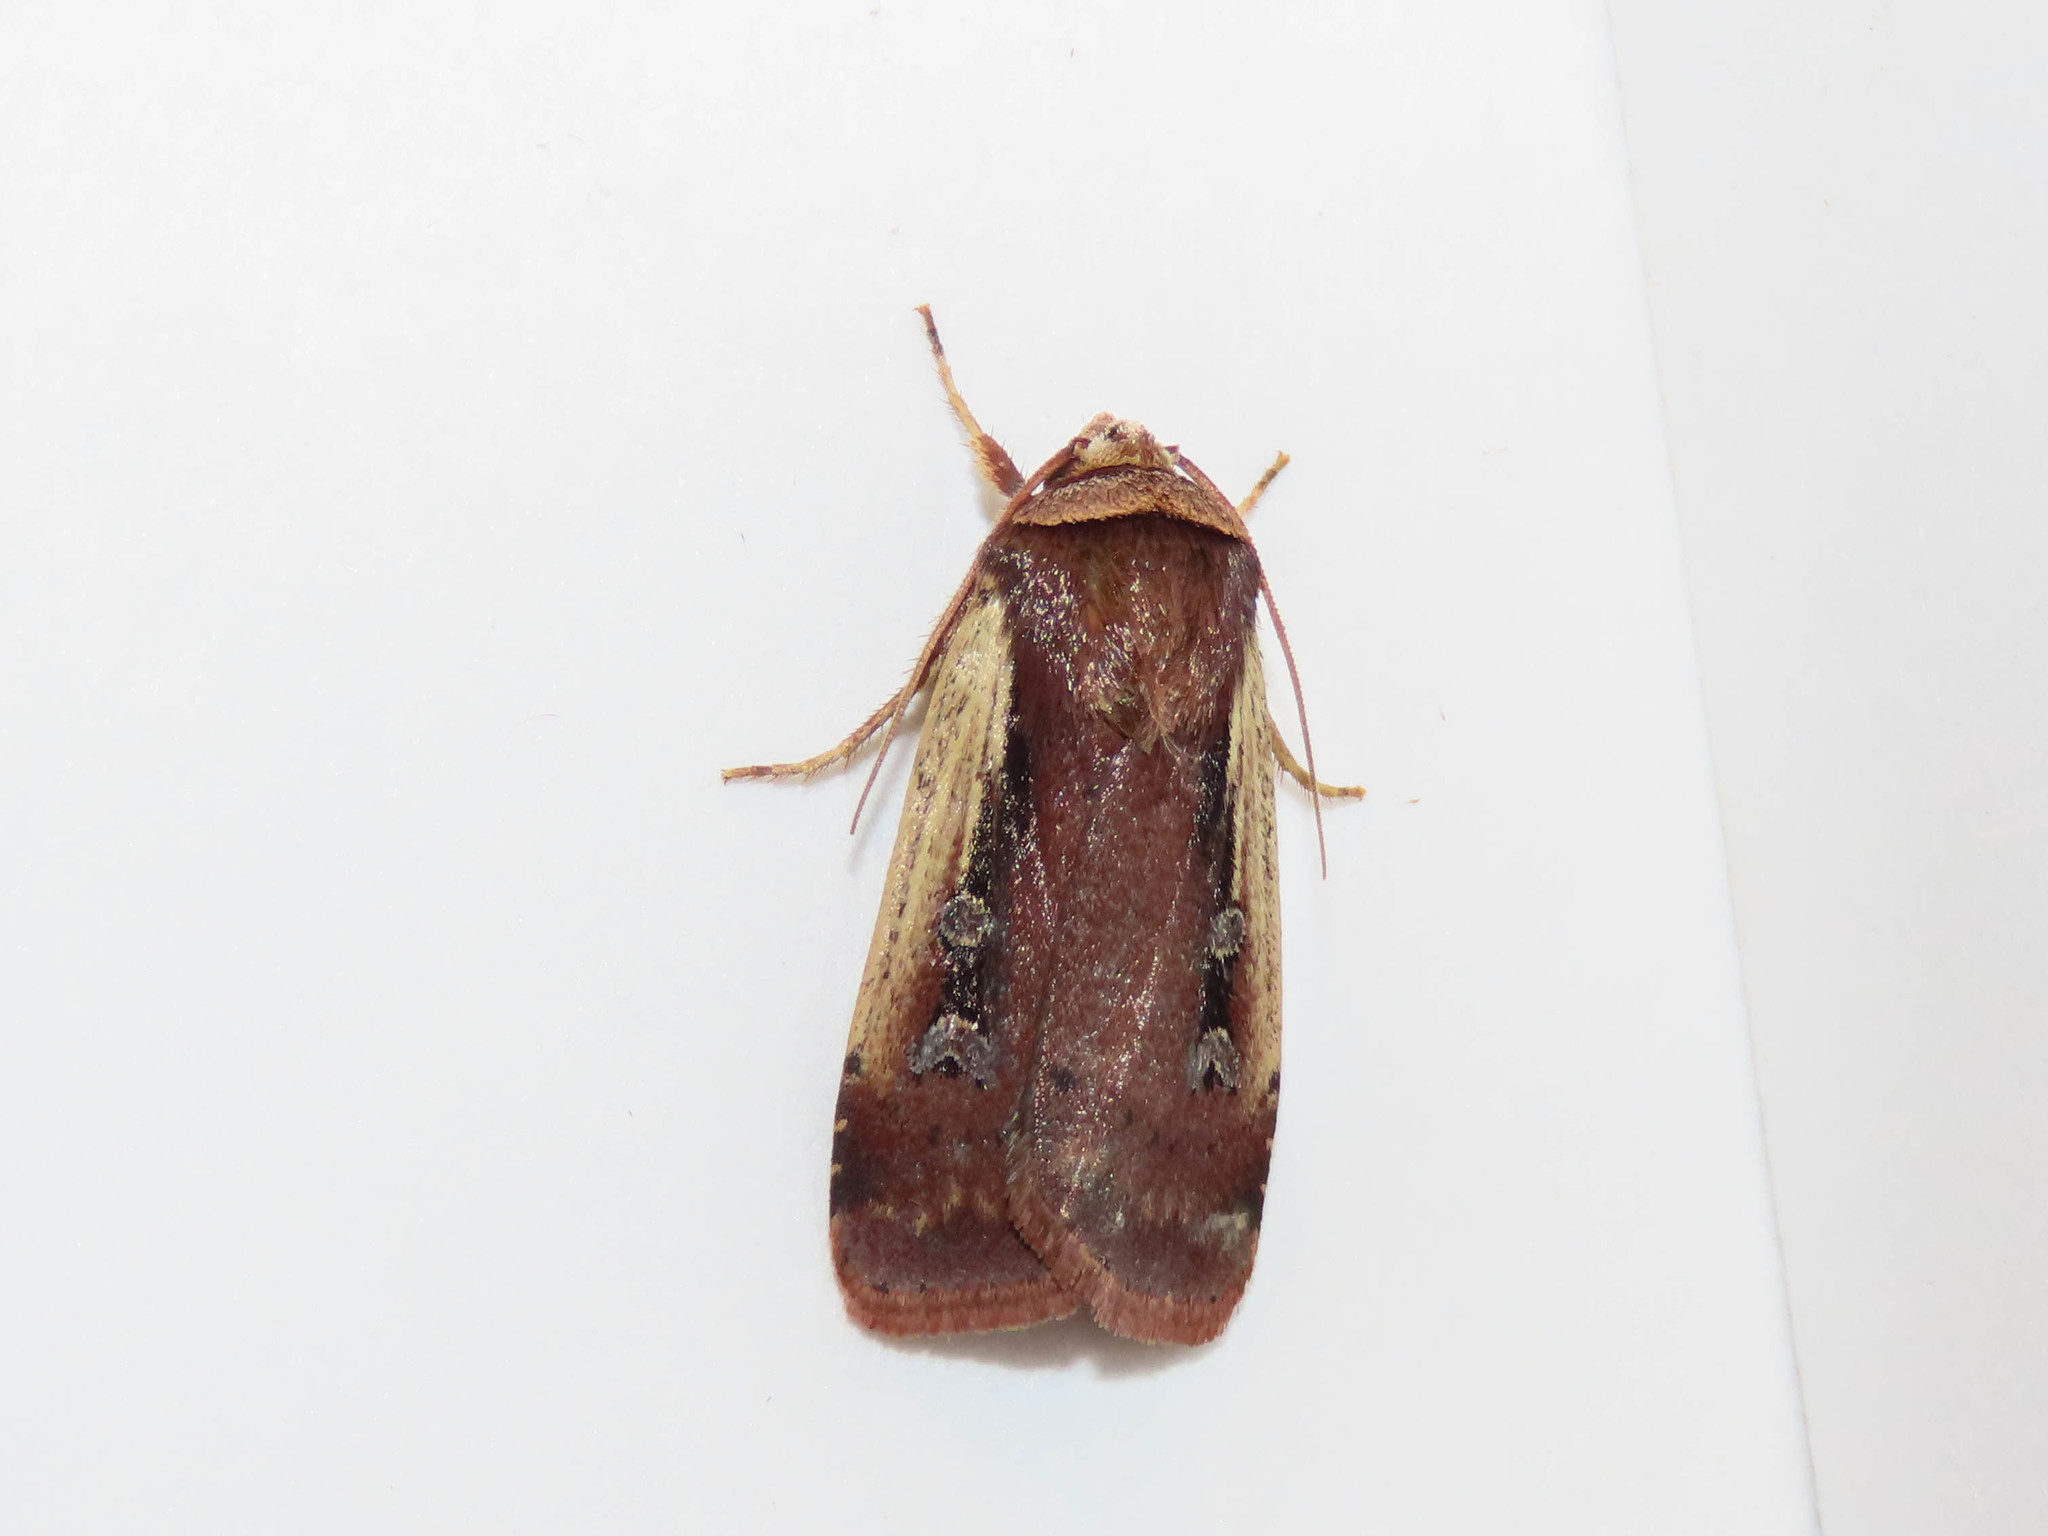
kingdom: Animalia
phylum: Arthropoda
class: Insecta
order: Lepidoptera
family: Noctuidae
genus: Ochropleura
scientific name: Ochropleura implecta
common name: Flame-shouldered dart
